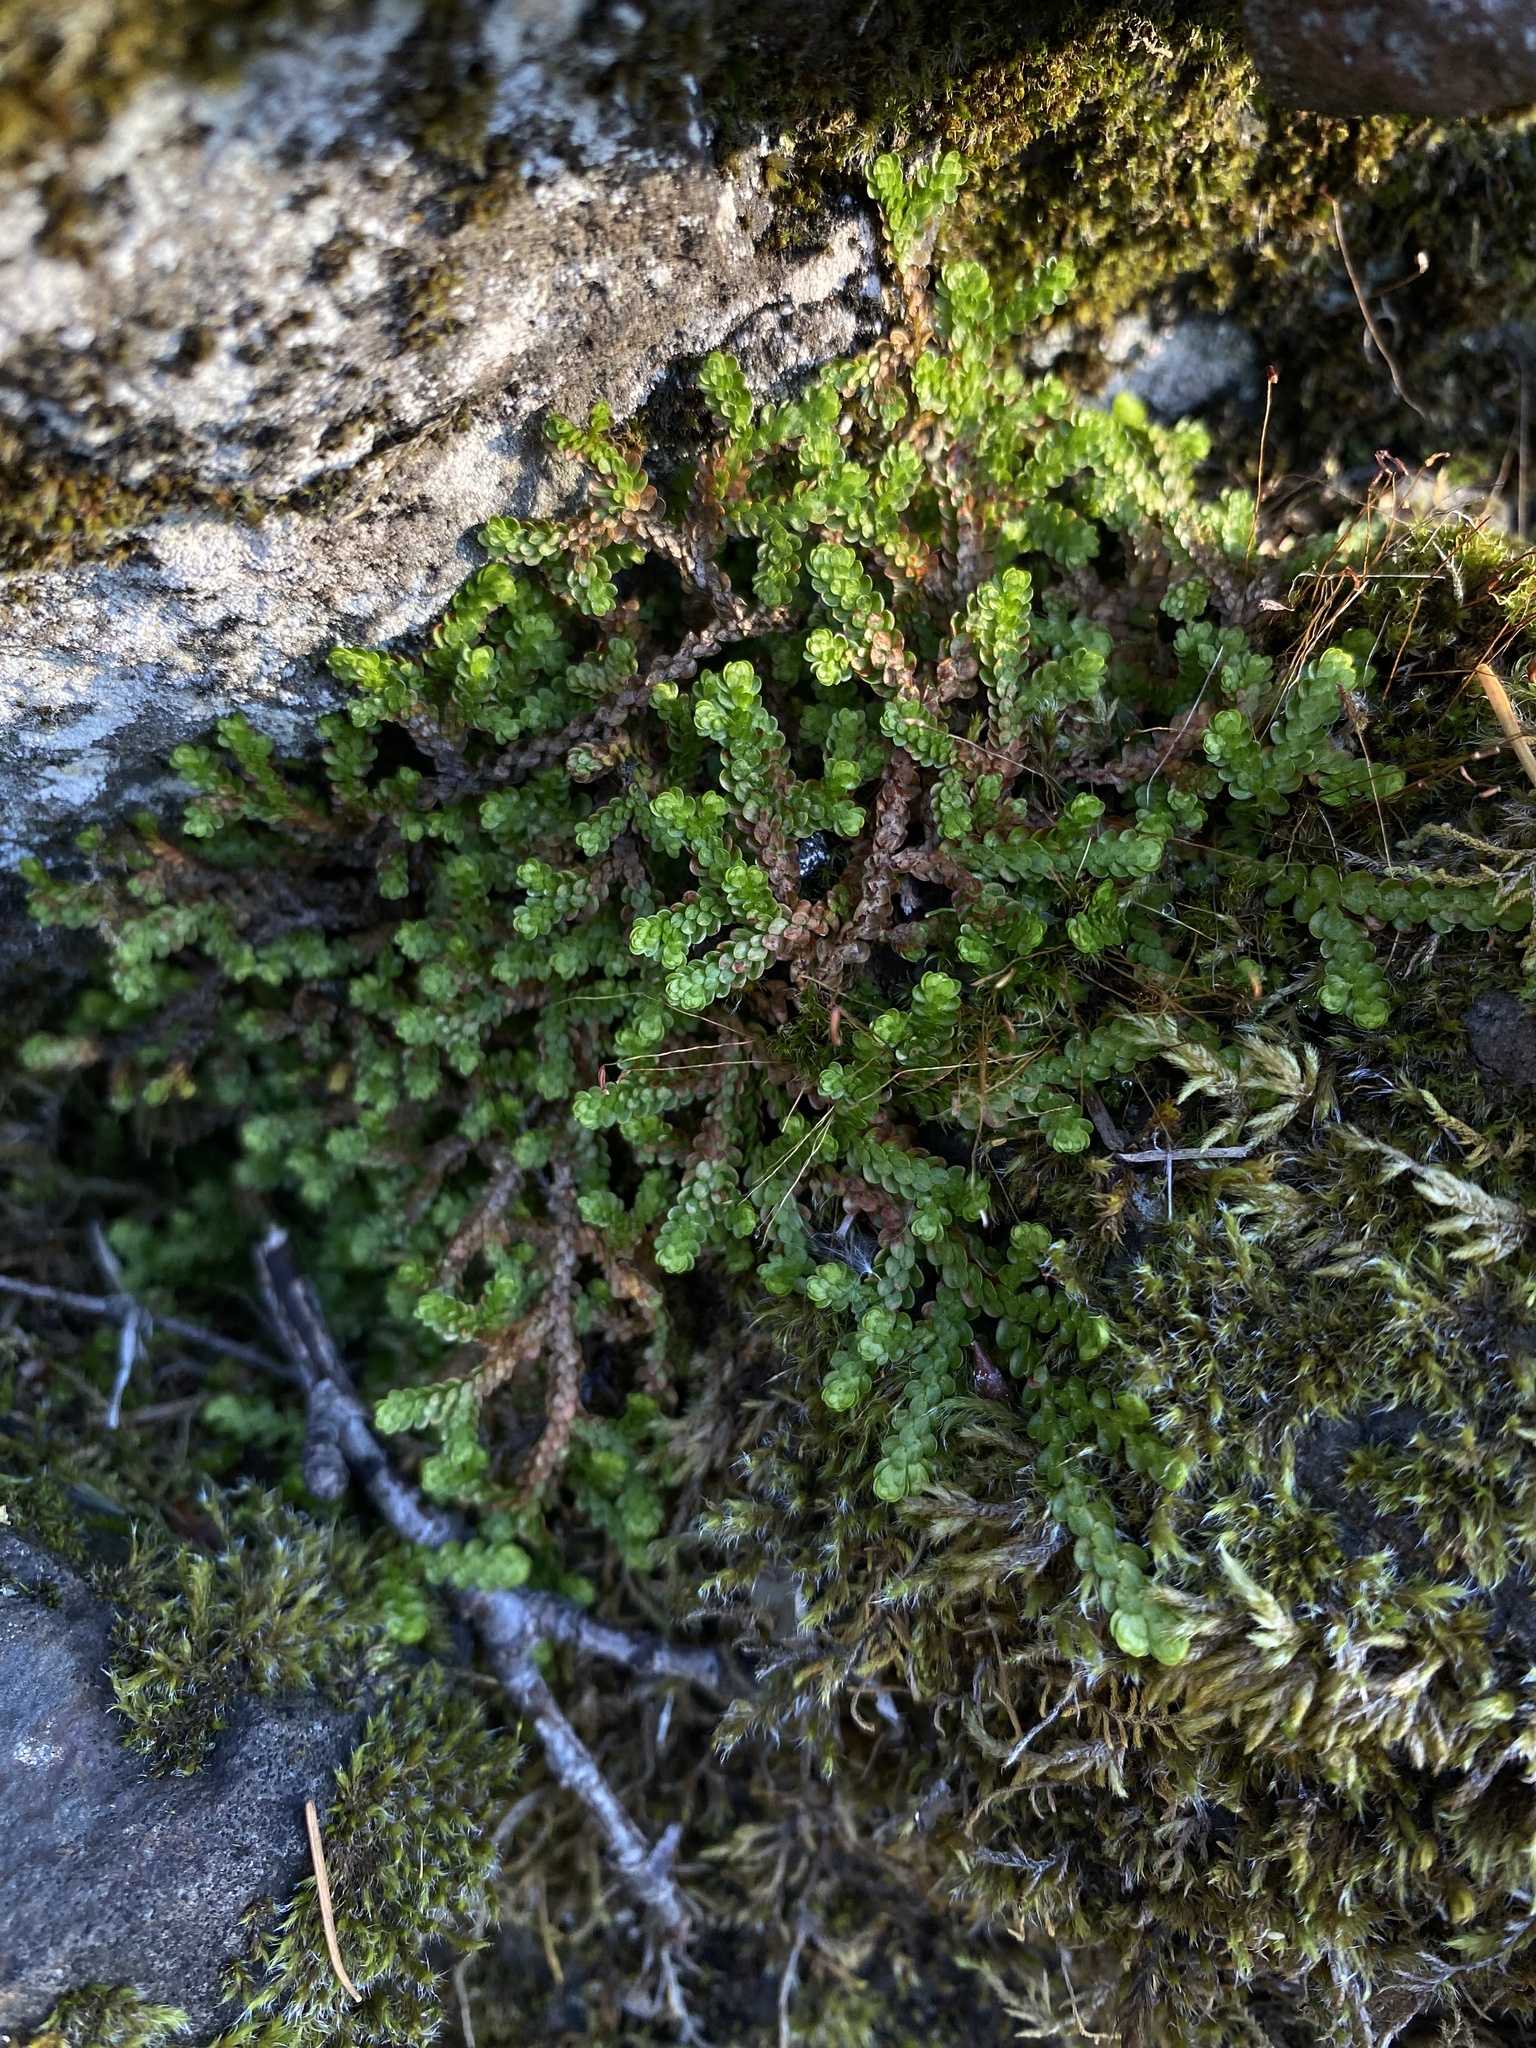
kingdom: Plantae
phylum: Tracheophyta
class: Lycopodiopsida
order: Selaginellales
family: Selaginellaceae
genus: Selaginella
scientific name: Selaginella douglasii
